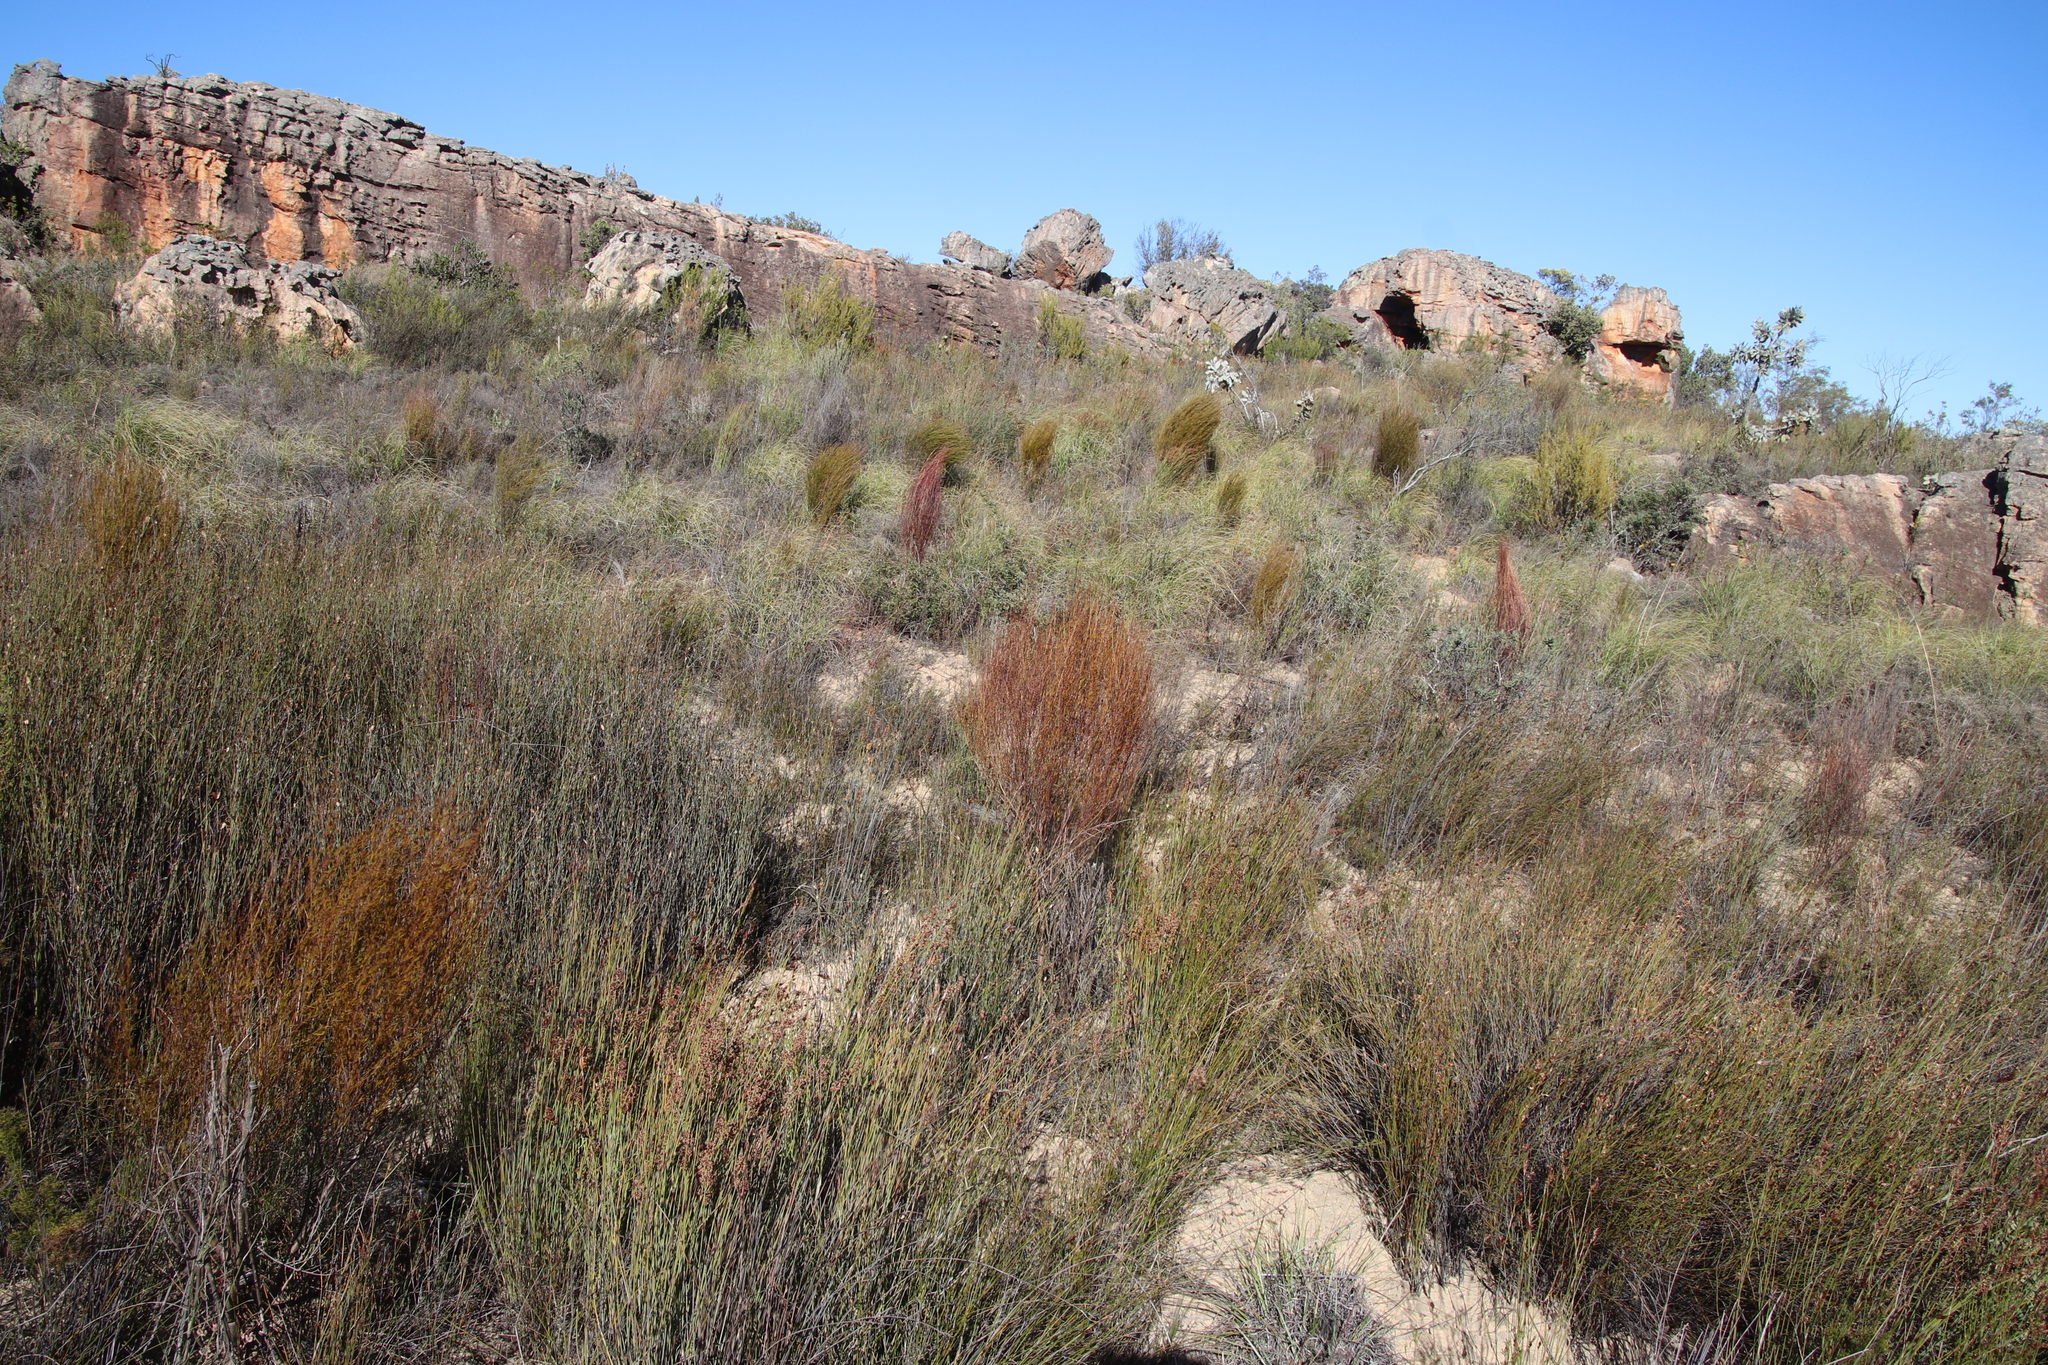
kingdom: Plantae
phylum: Tracheophyta
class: Magnoliopsida
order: Fabales
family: Fabaceae
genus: Aspalathus
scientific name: Aspalathus linearis
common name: Rooibos-tea
